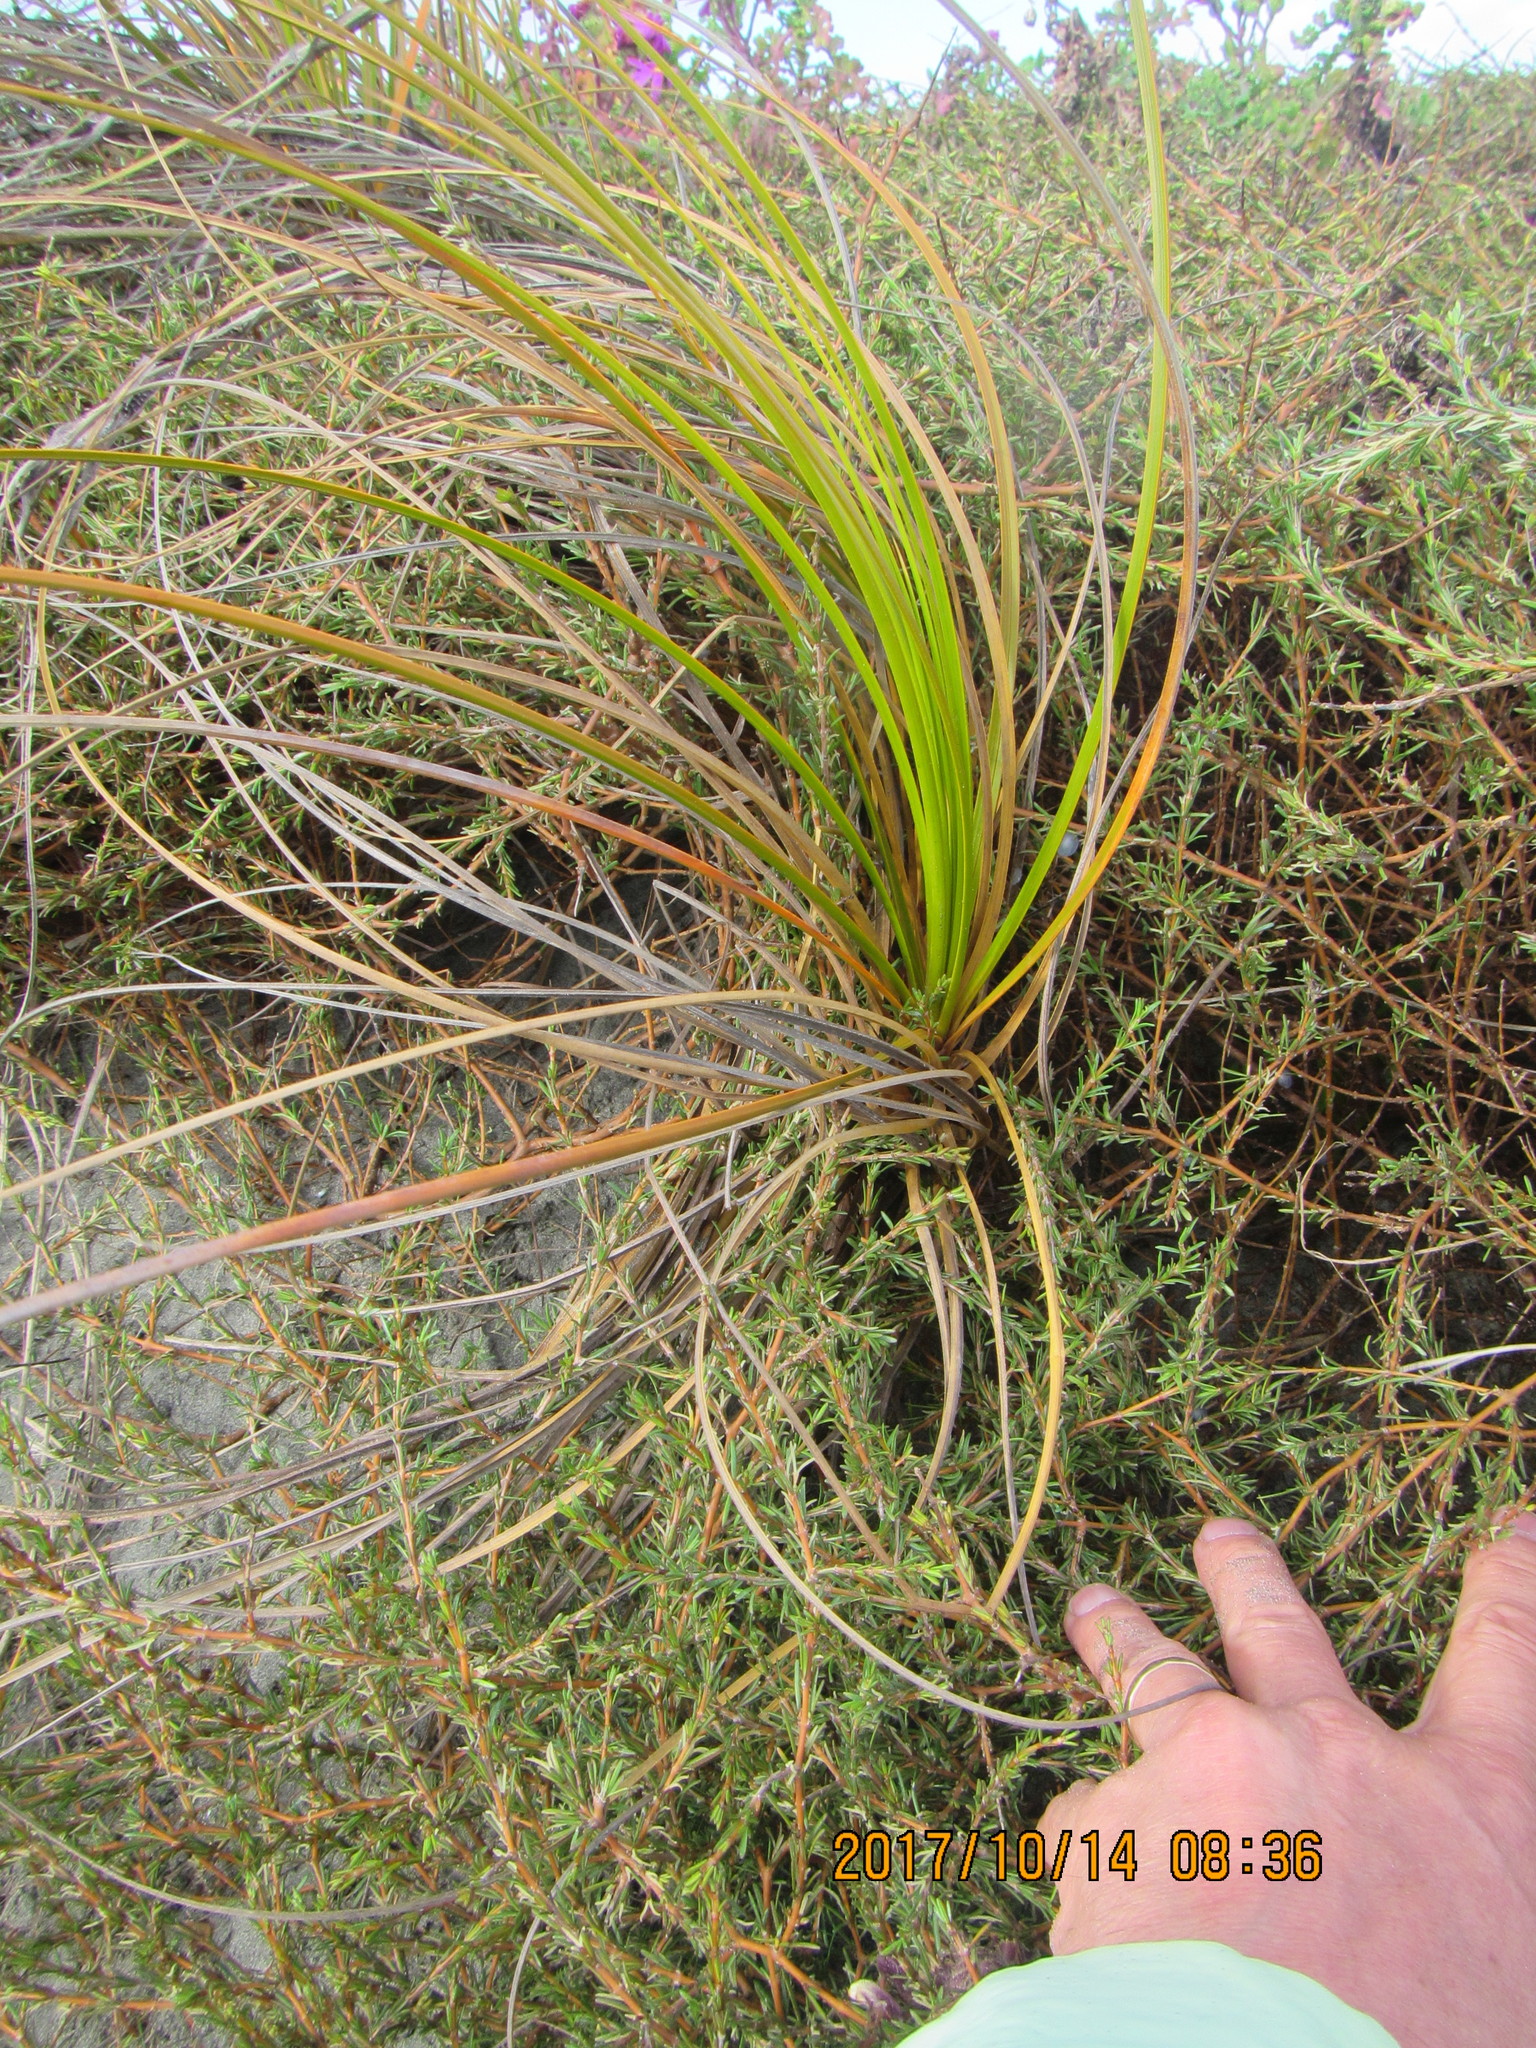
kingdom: Animalia
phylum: Arthropoda
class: Arachnida
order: Araneae
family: Salticidae
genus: Trite
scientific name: Trite auricoma
